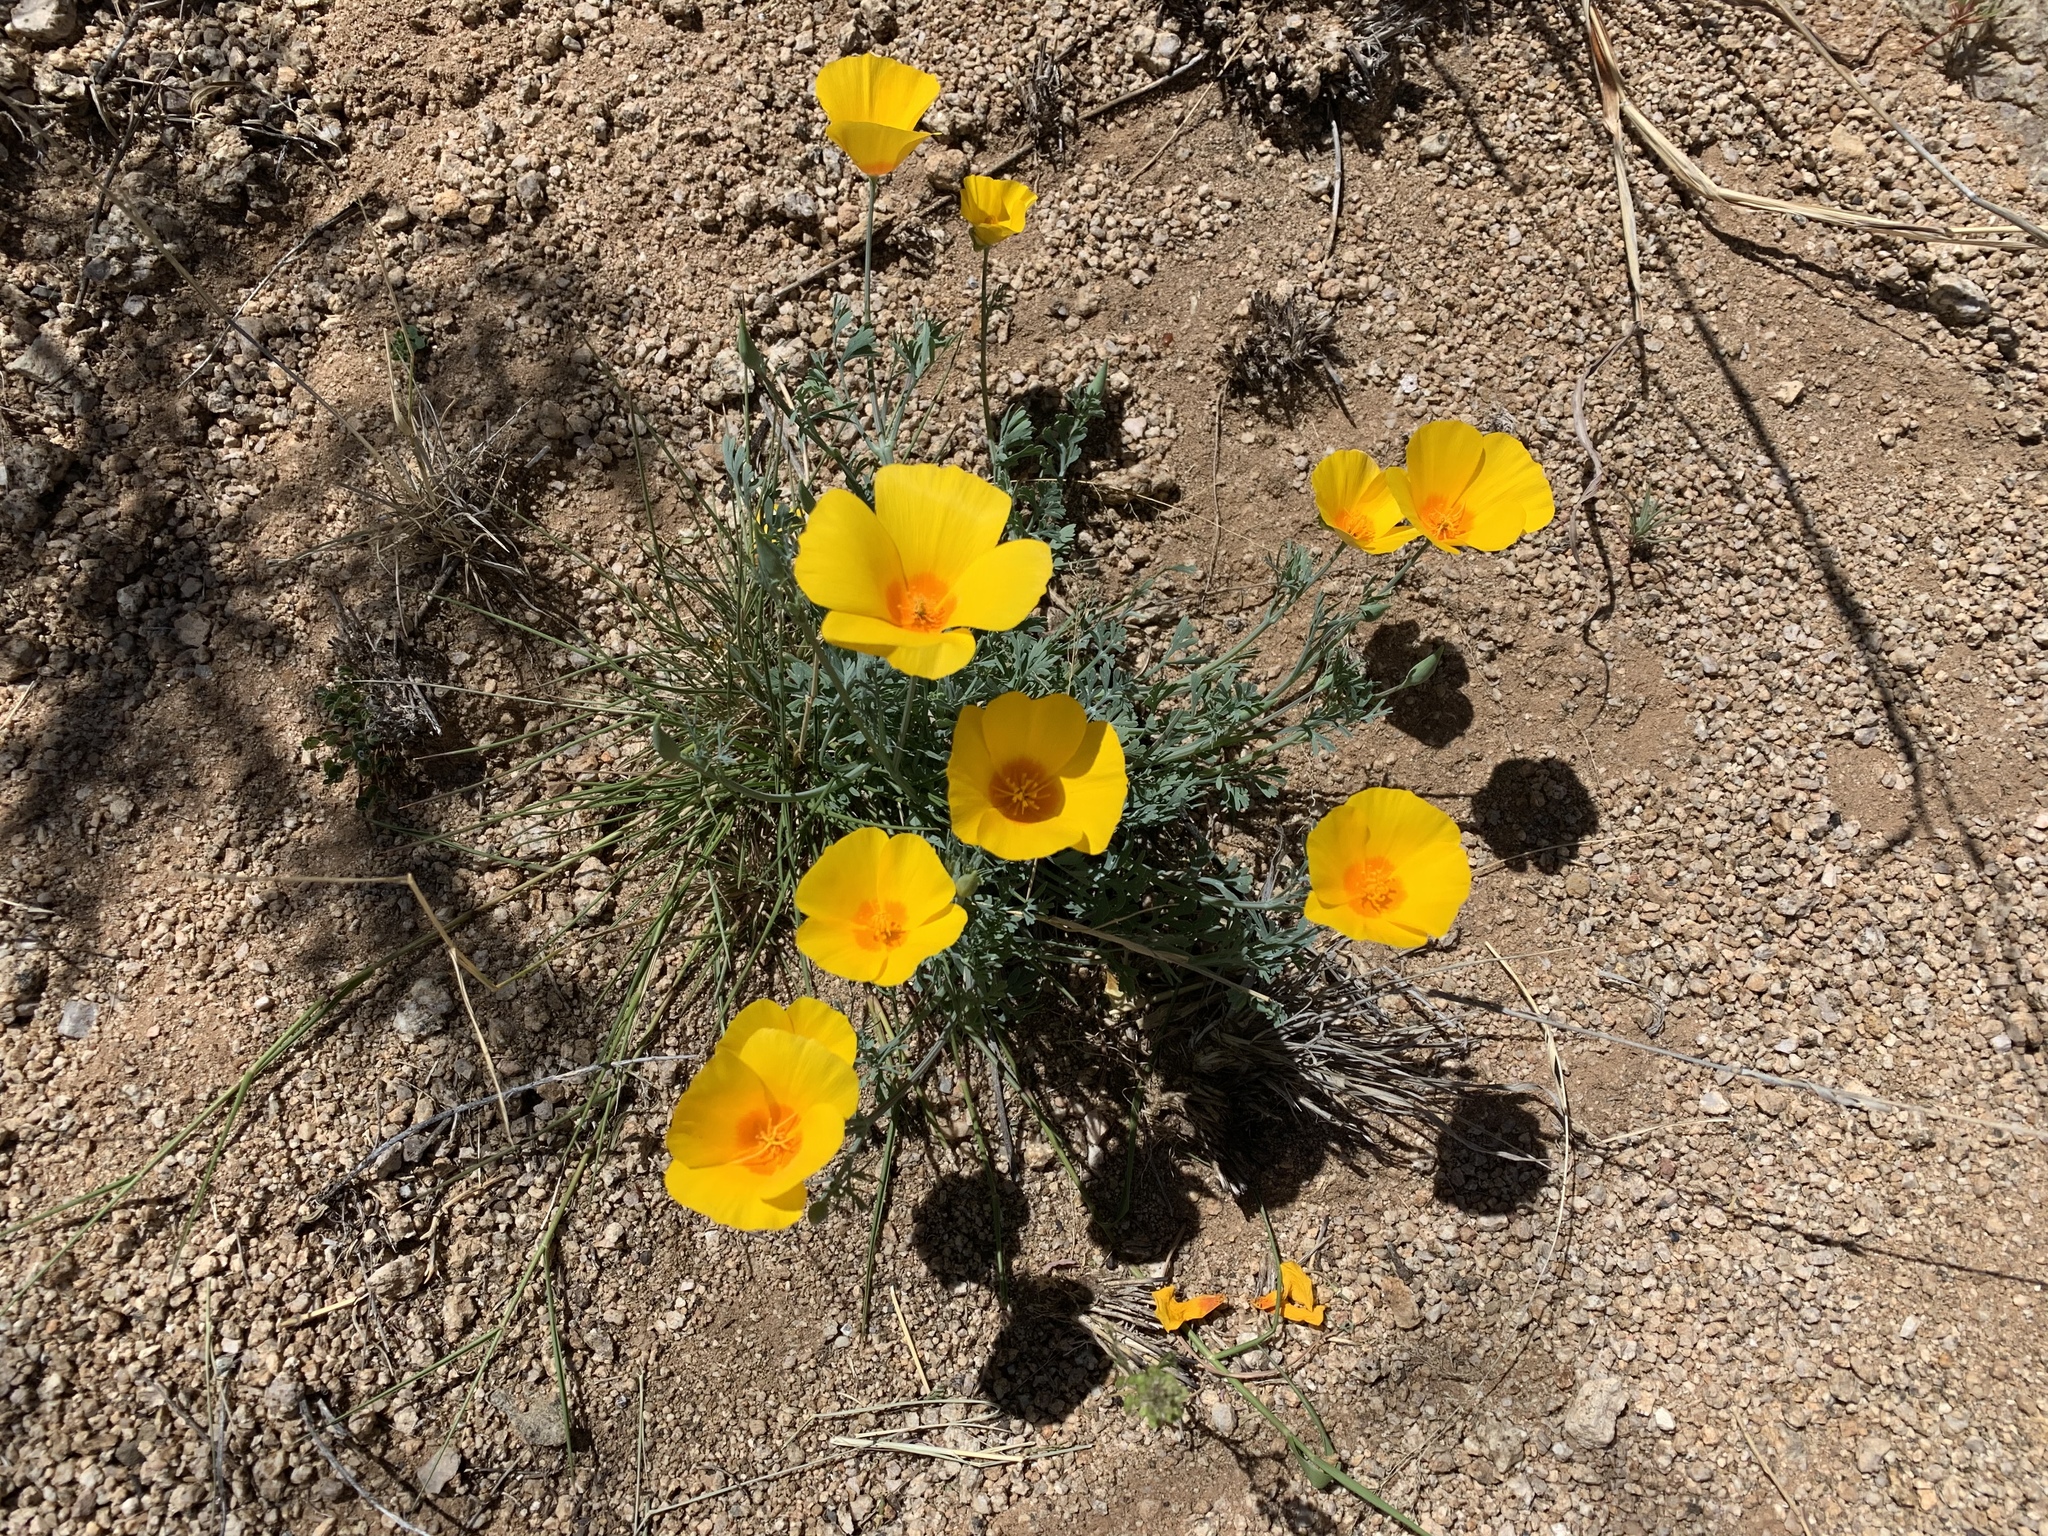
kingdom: Plantae
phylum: Tracheophyta
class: Magnoliopsida
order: Ranunculales
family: Papaveraceae
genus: Eschscholzia
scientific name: Eschscholzia californica
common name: California poppy
